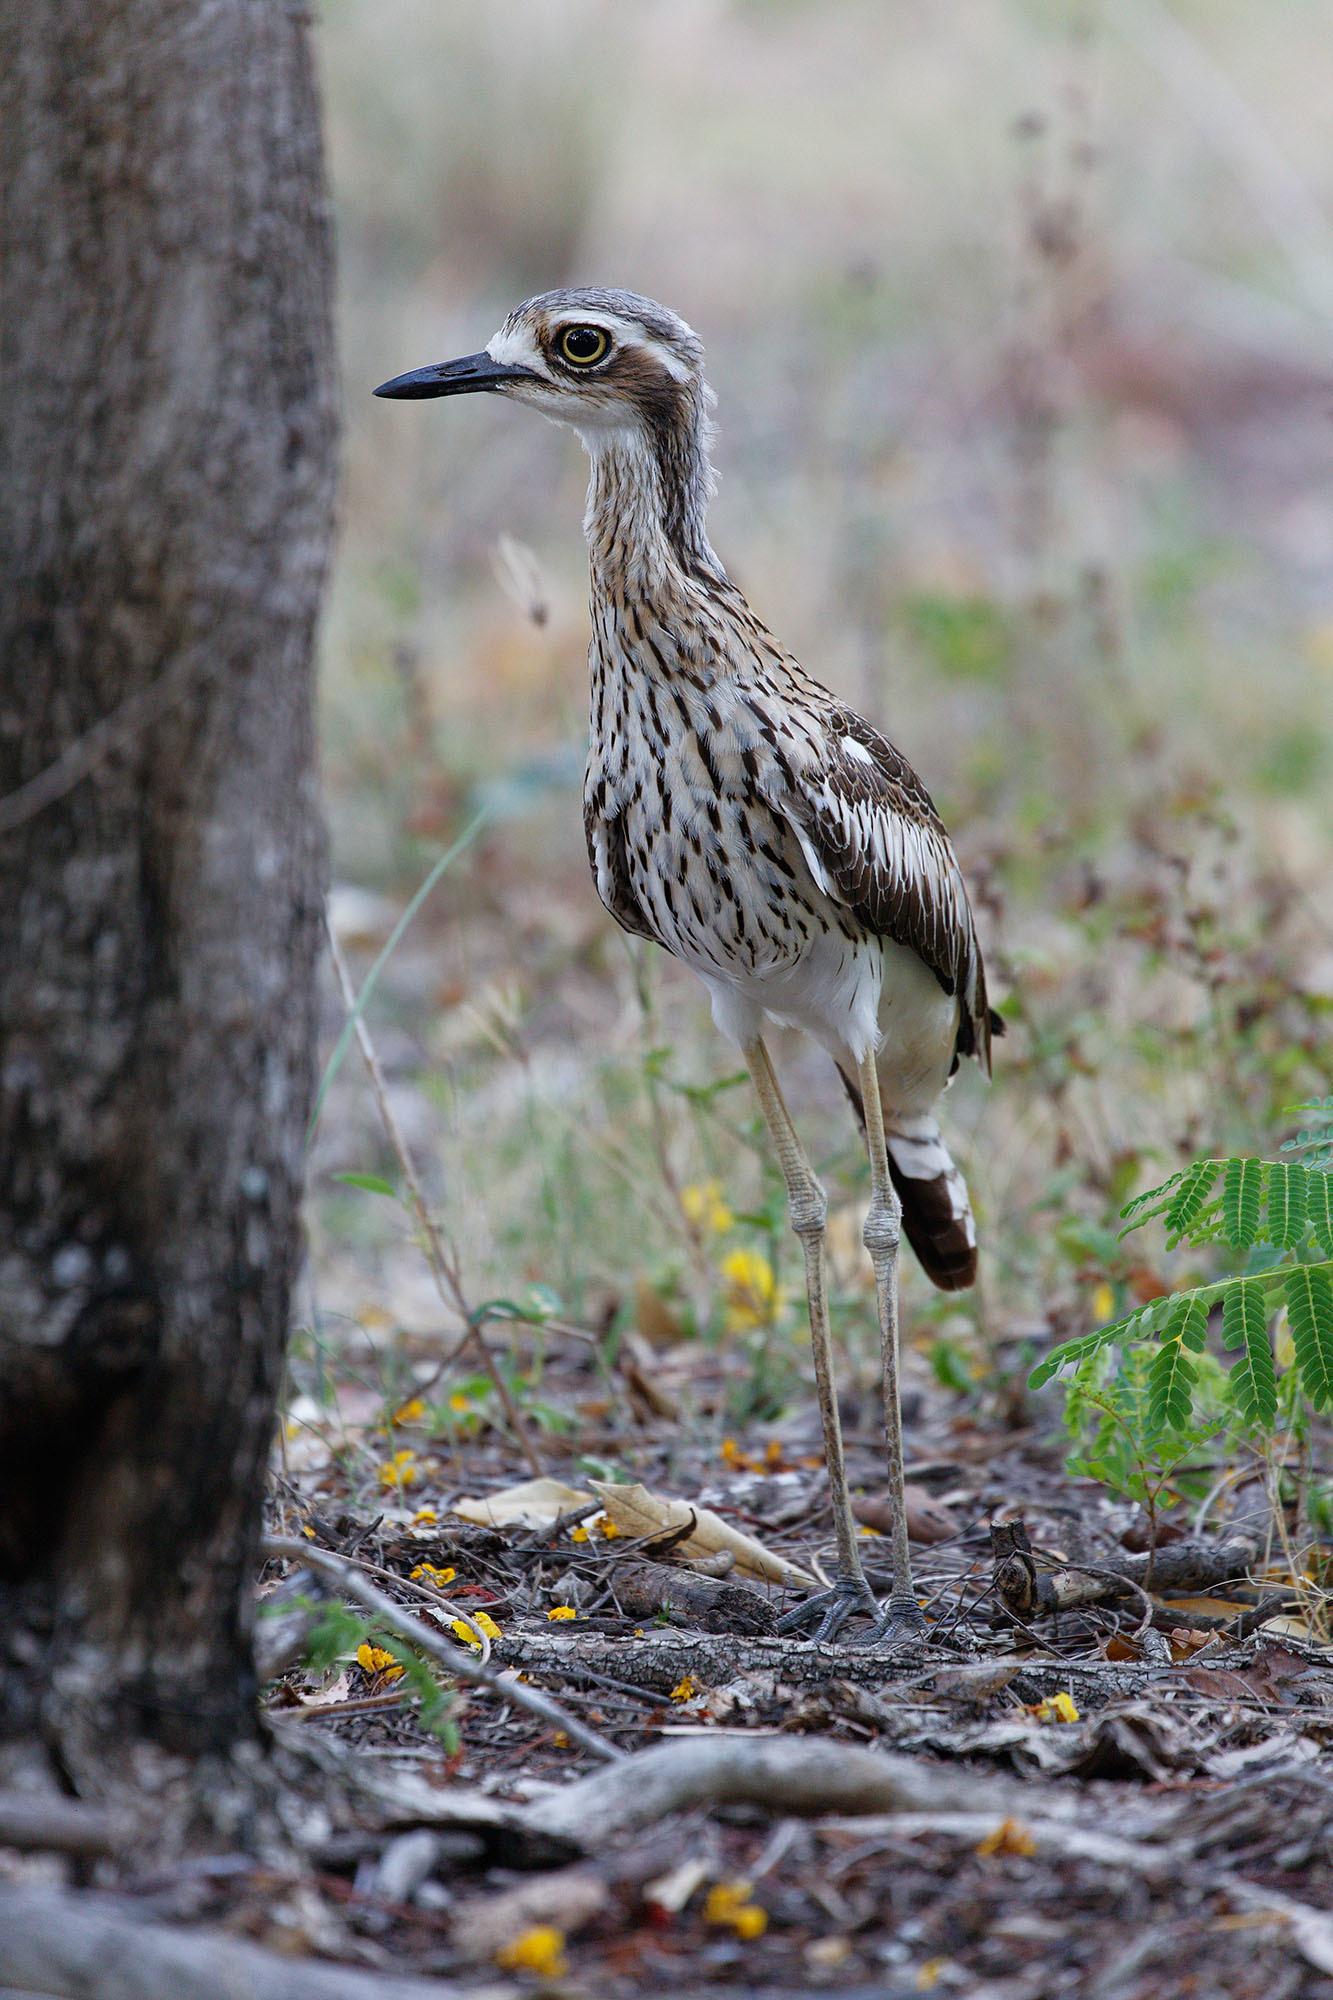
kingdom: Animalia
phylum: Chordata
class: Aves
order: Charadriiformes
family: Burhinidae
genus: Burhinus
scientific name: Burhinus grallarius
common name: Bush stone-curlew
